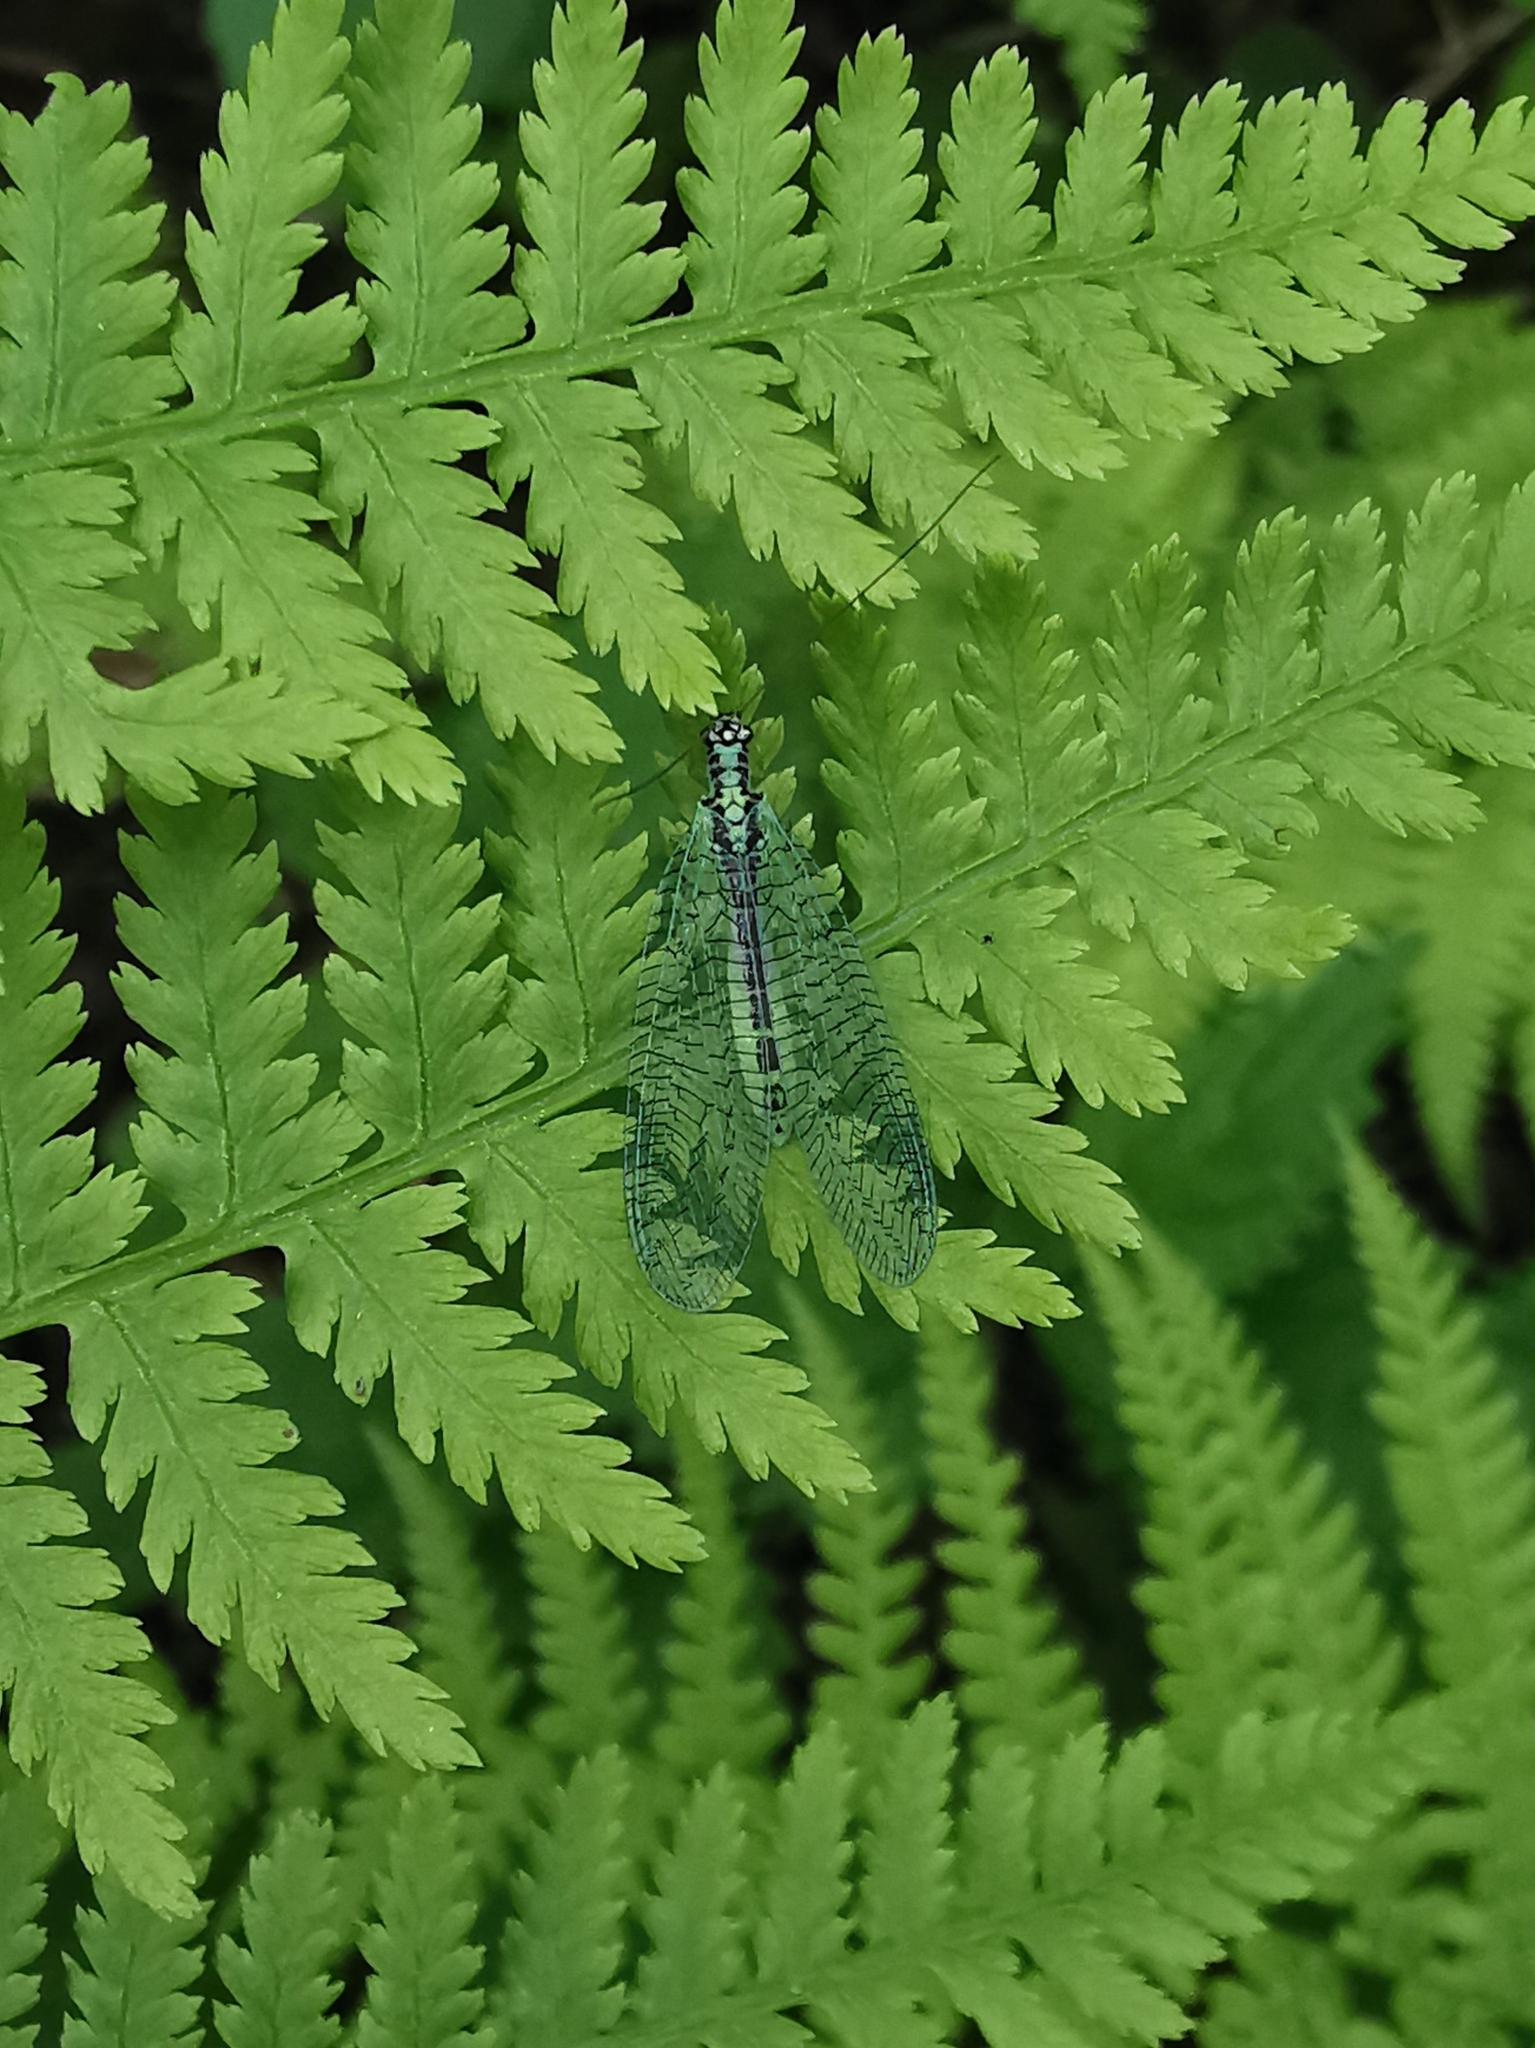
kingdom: Animalia
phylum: Arthropoda
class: Insecta
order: Neuroptera
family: Chrysopidae
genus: Chrysopa
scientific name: Chrysopa perla
